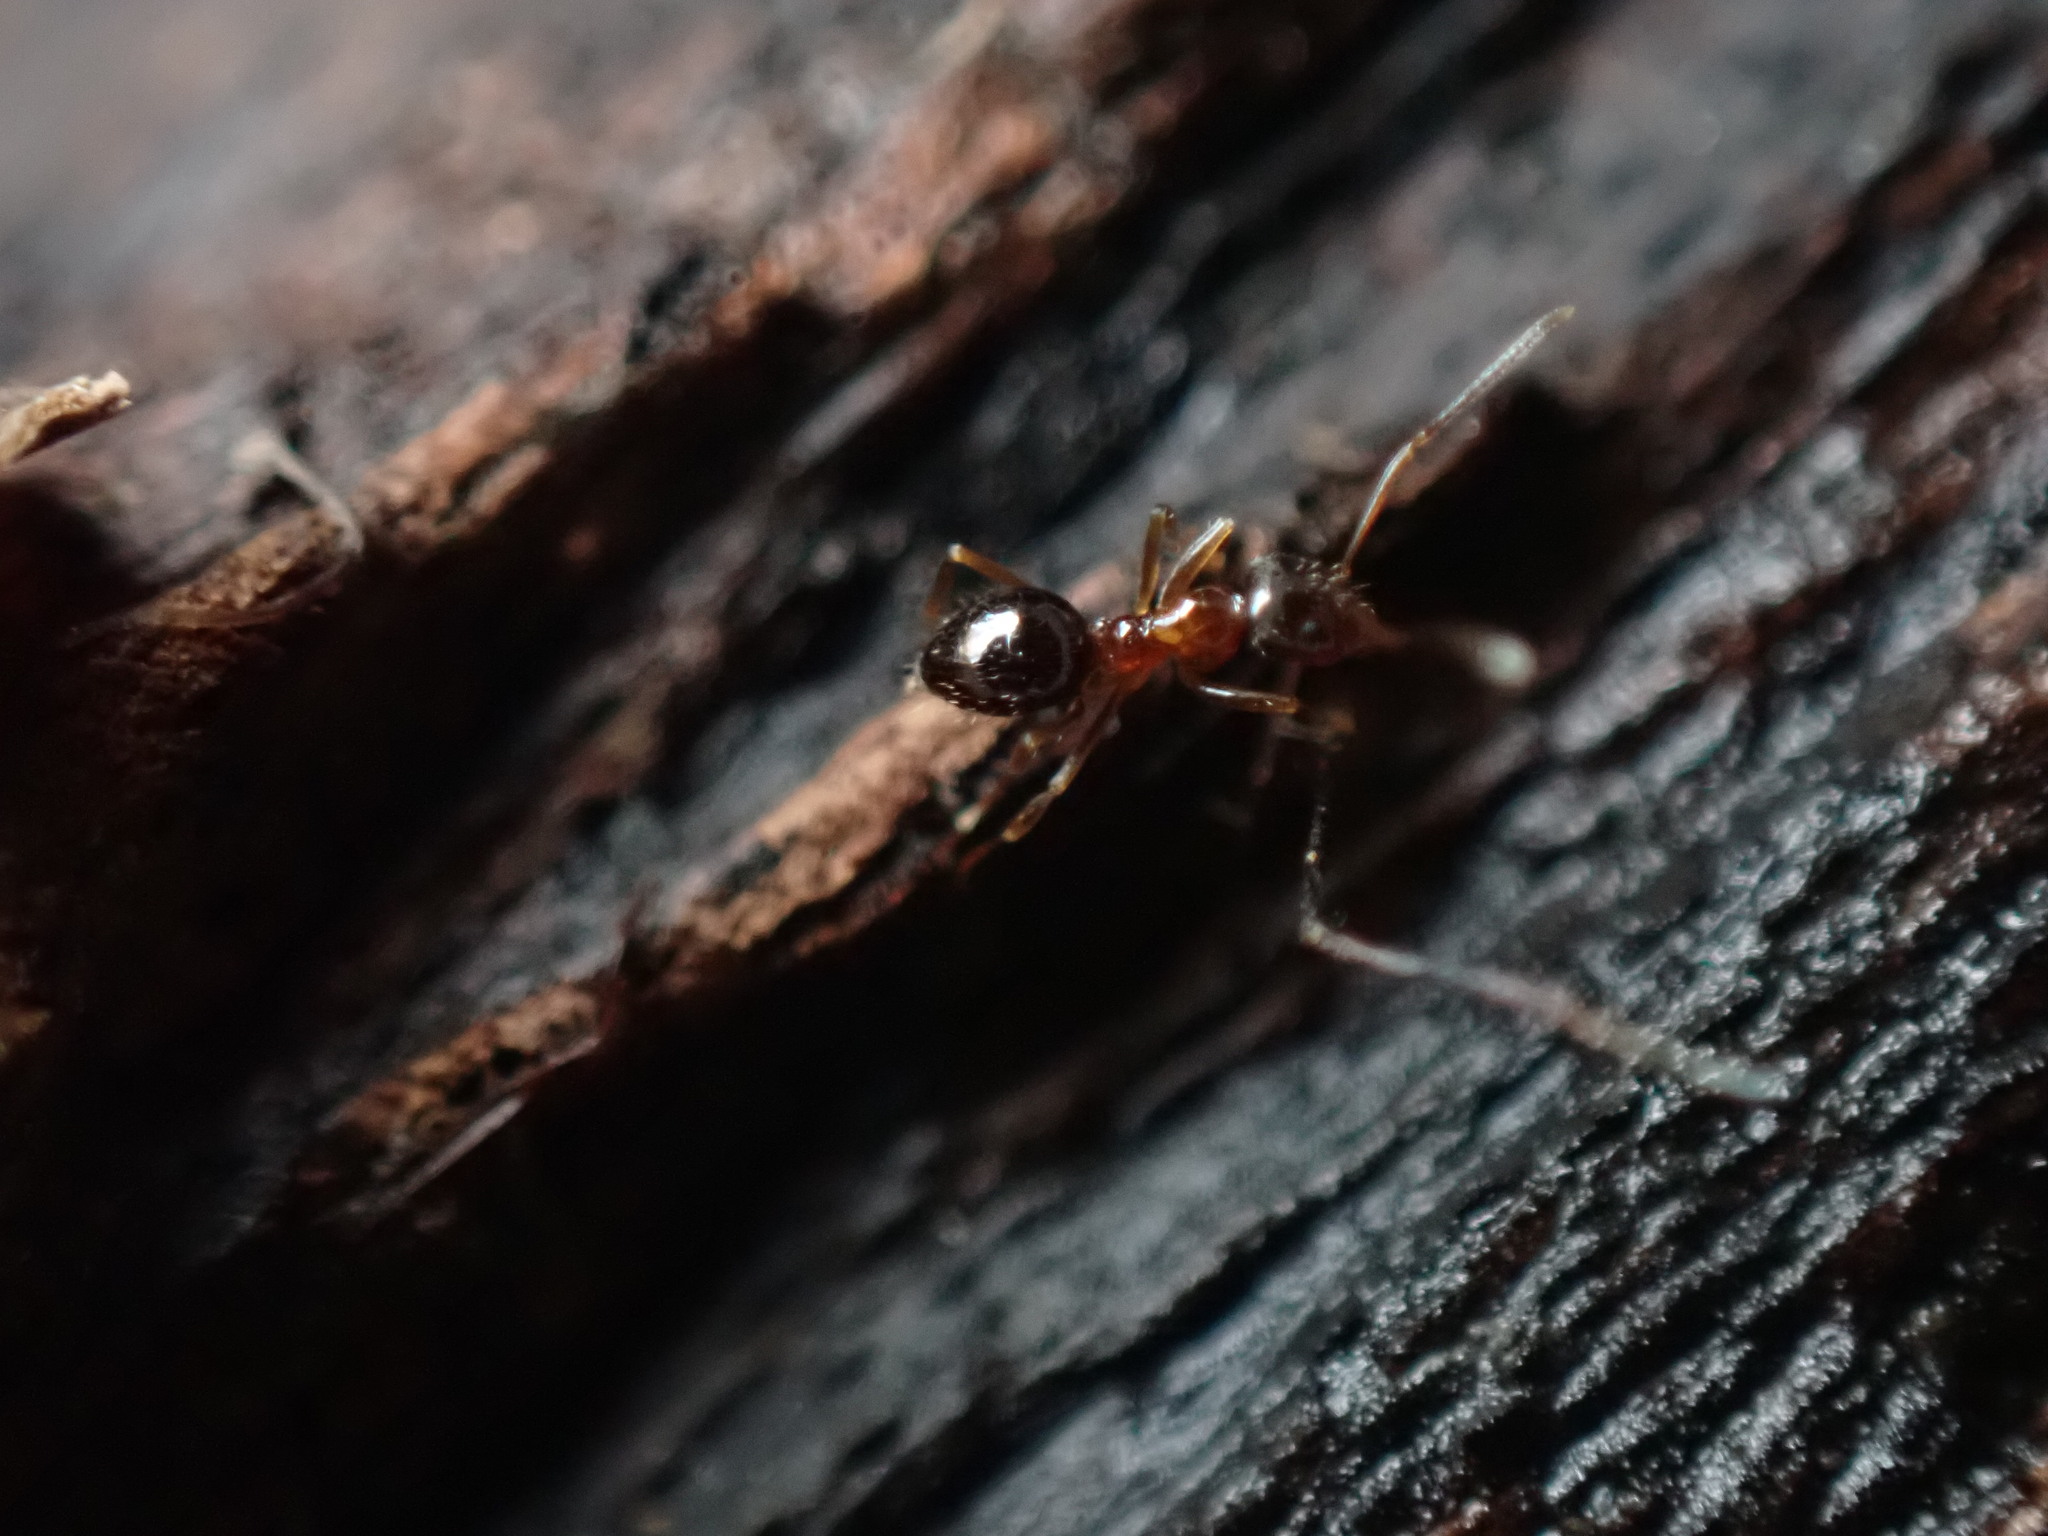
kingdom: Animalia
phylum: Arthropoda
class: Insecta
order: Hymenoptera
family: Formicidae
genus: Paratrechina
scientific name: Paratrechina flavipes
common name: Eastern asian formicine ant
